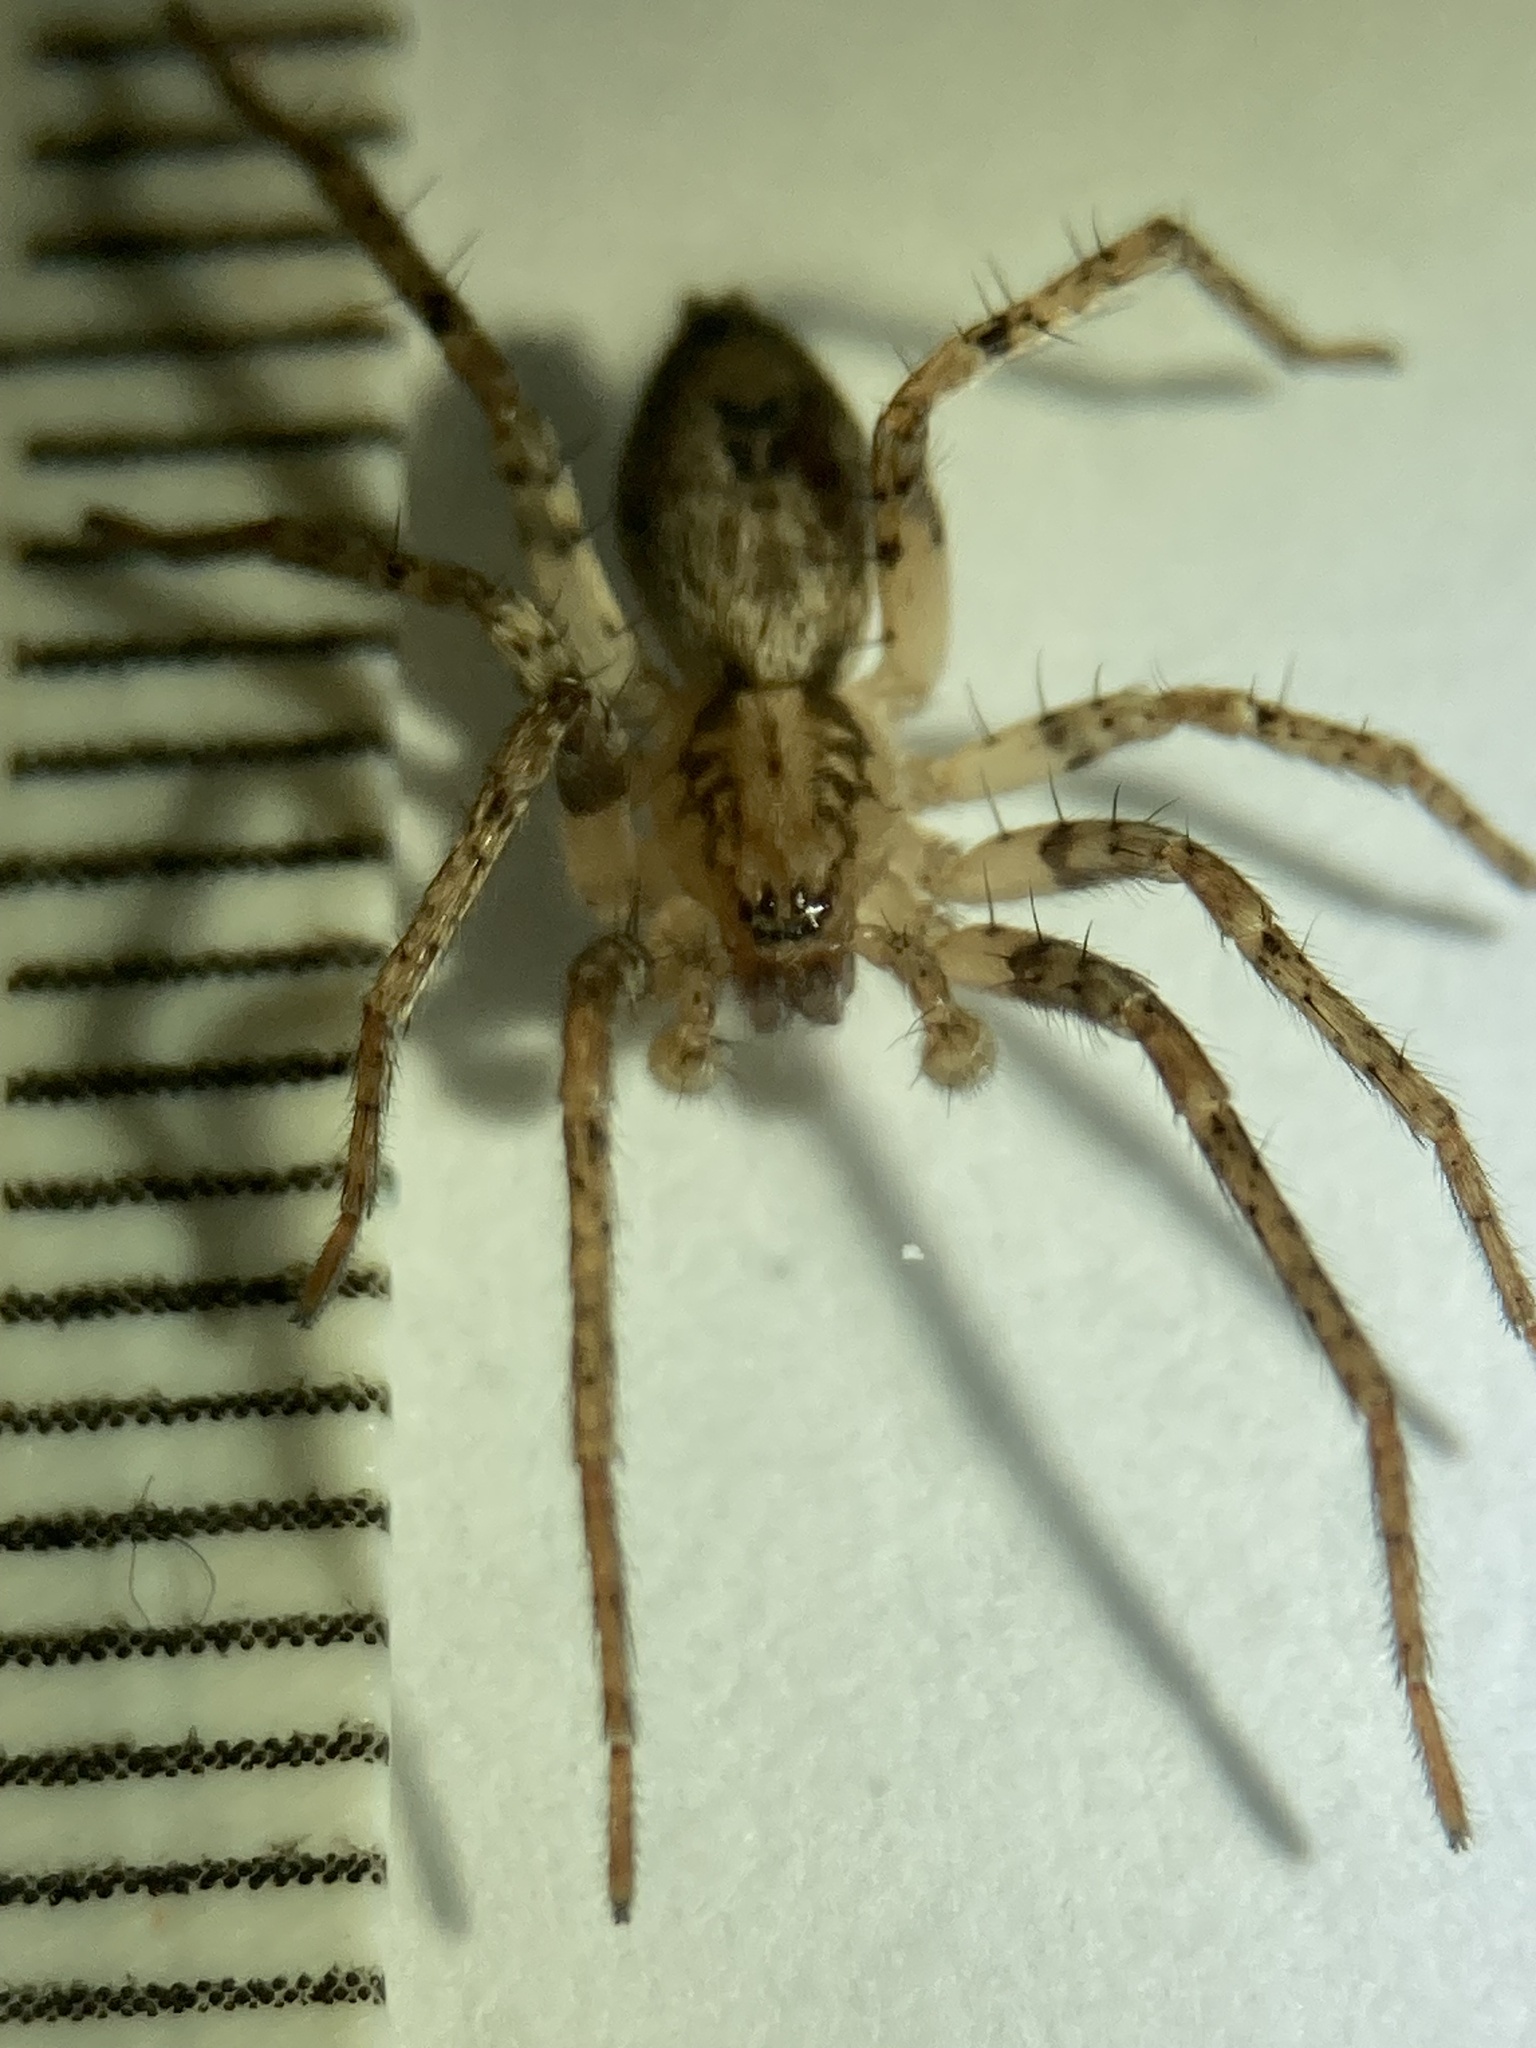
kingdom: Animalia
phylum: Arthropoda
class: Arachnida
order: Araneae
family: Anyphaenidae
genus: Anyphaena
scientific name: Anyphaena accentuata
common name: Buzzing spider
